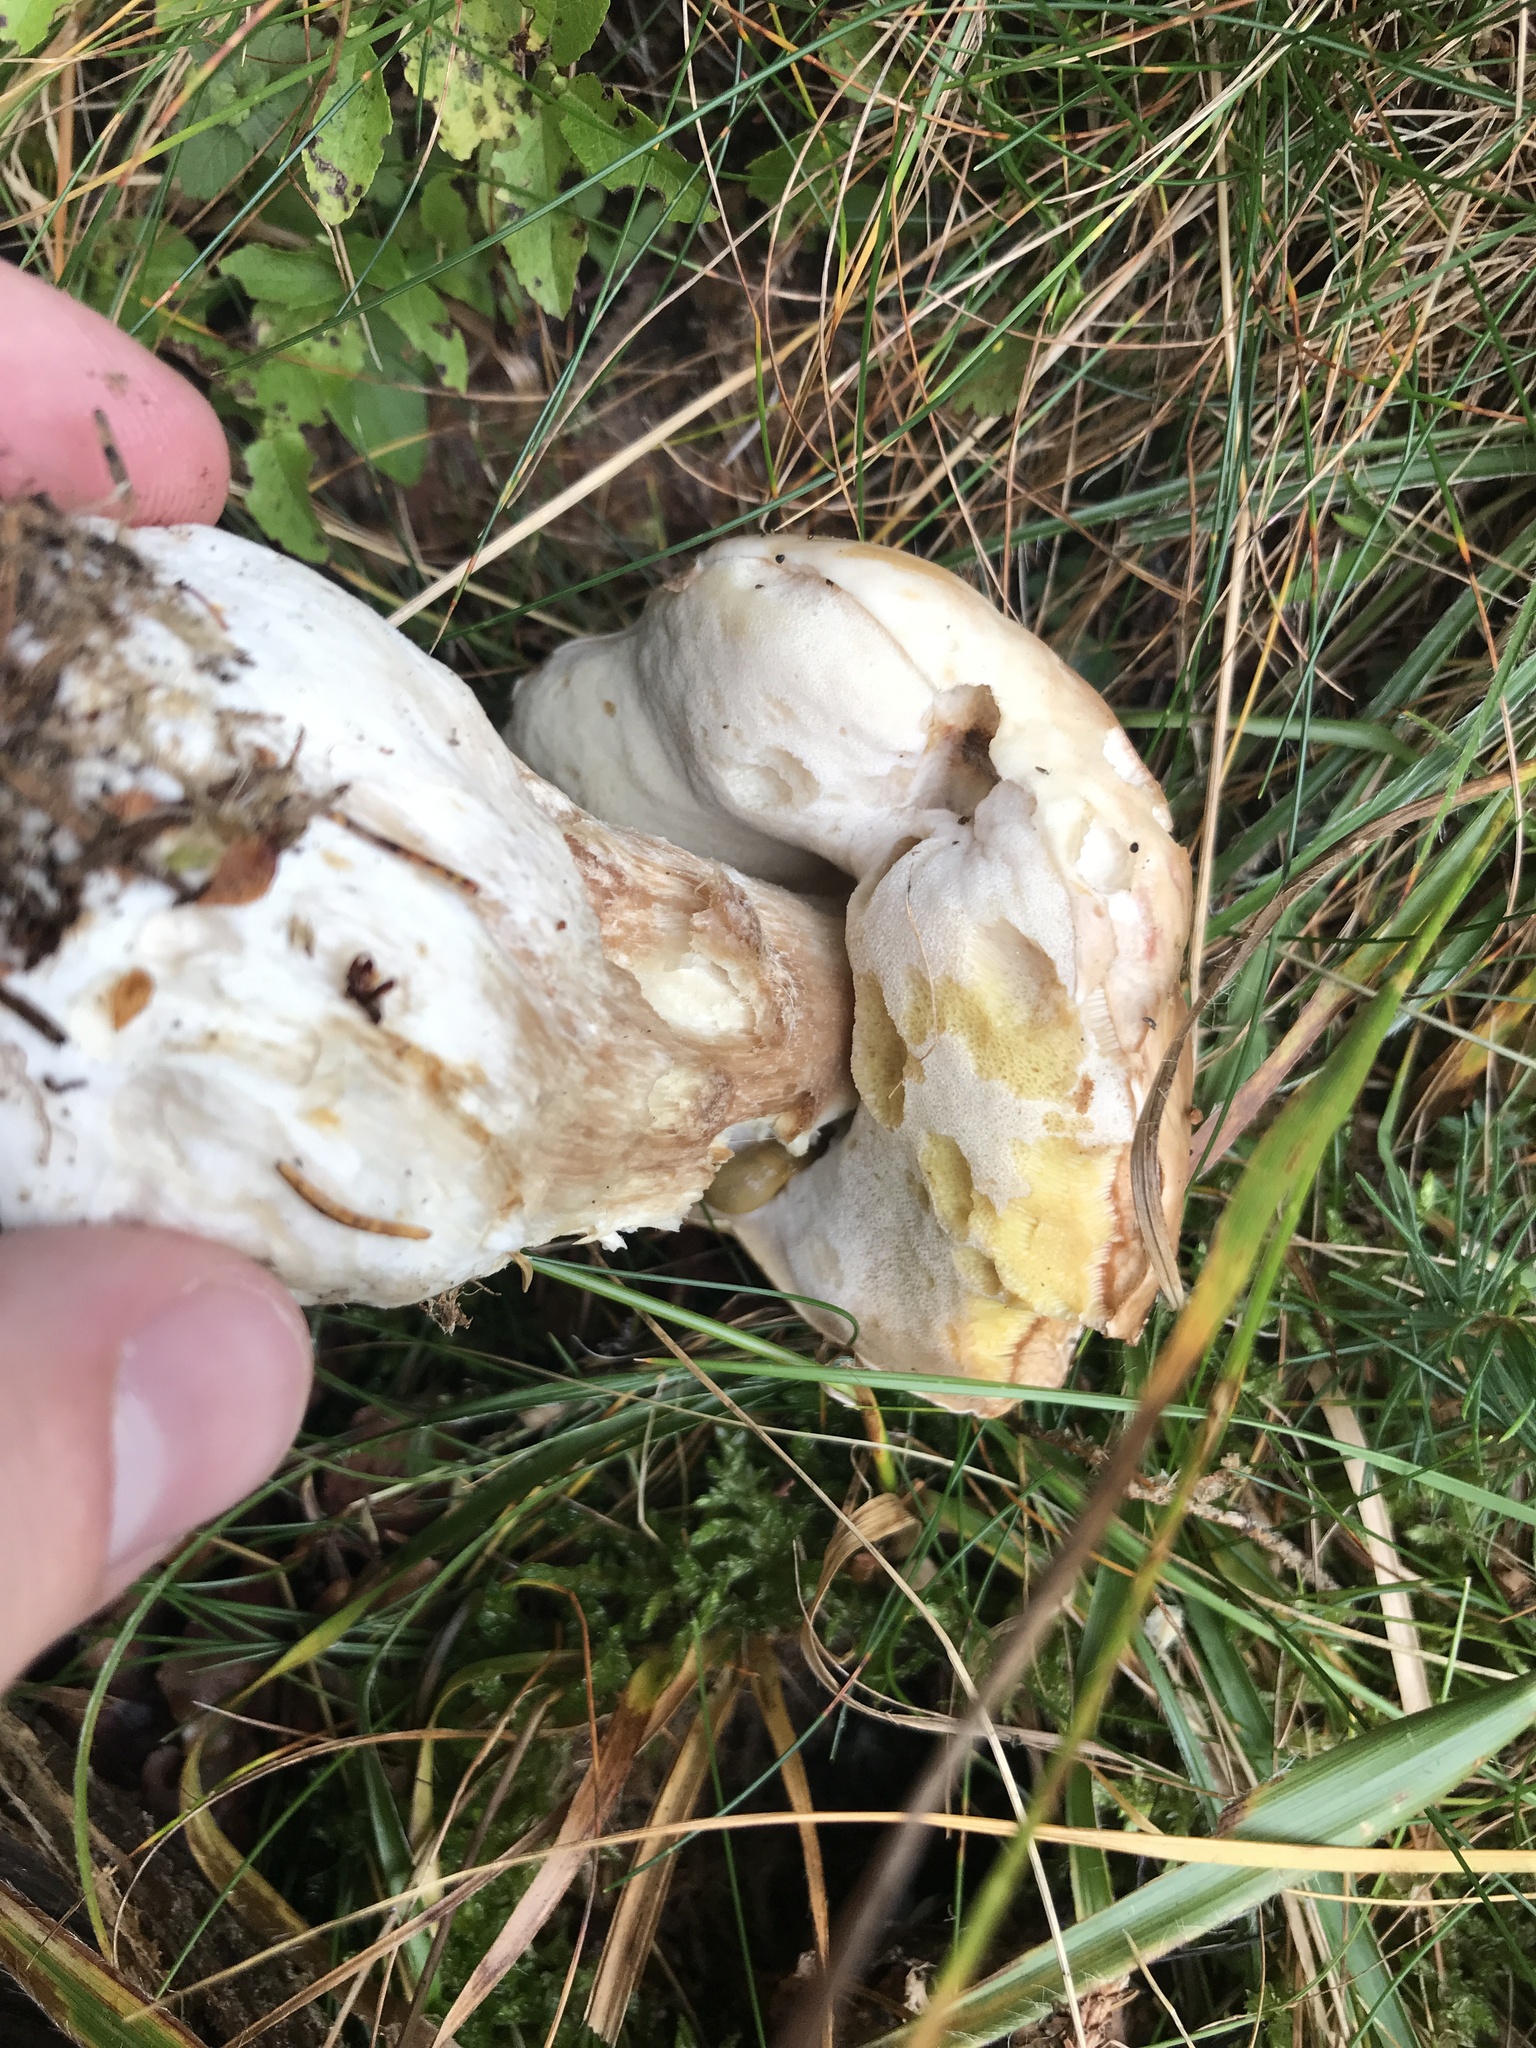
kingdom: Fungi
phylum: Basidiomycota
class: Agaricomycetes
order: Boletales
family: Boletaceae
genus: Boletus
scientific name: Boletus edulis
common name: Cep
